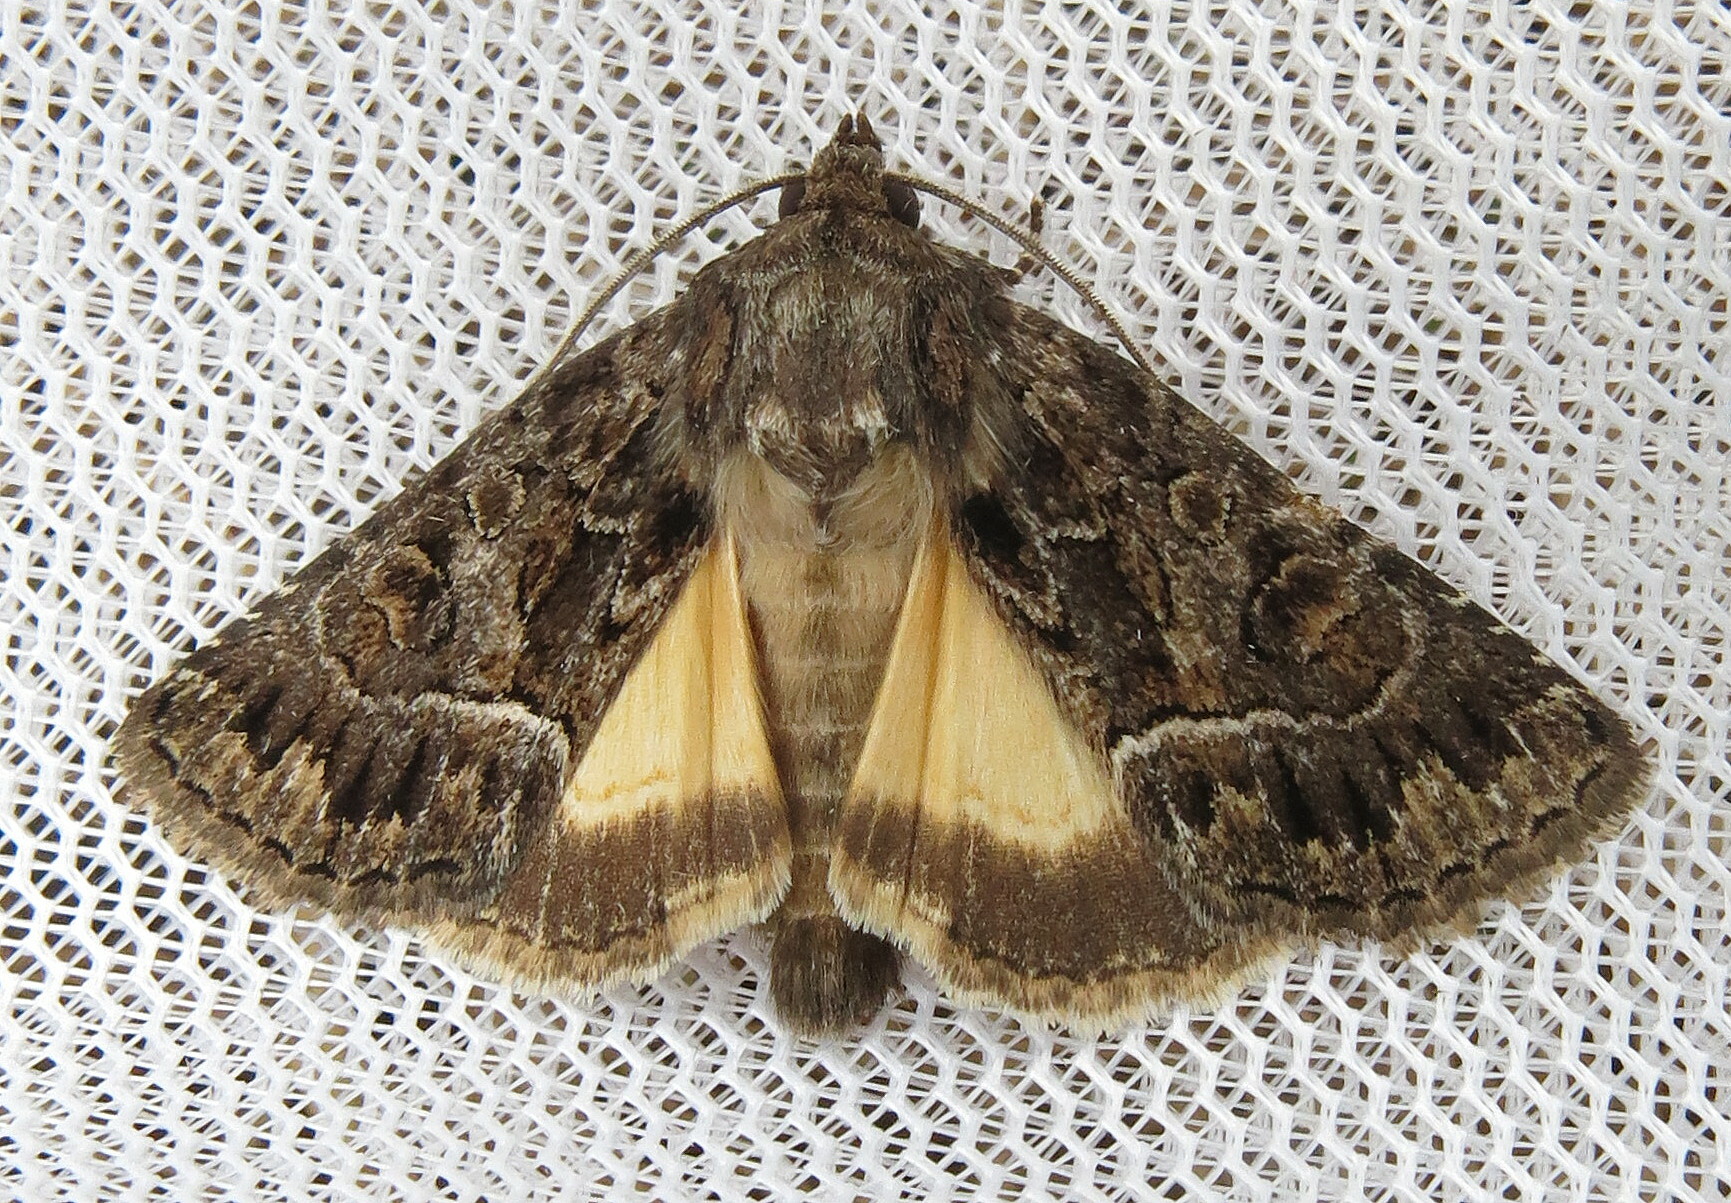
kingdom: Animalia
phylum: Arthropoda
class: Insecta
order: Lepidoptera
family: Noctuidae
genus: Thalpophila
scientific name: Thalpophila matura
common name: Straw underwing
